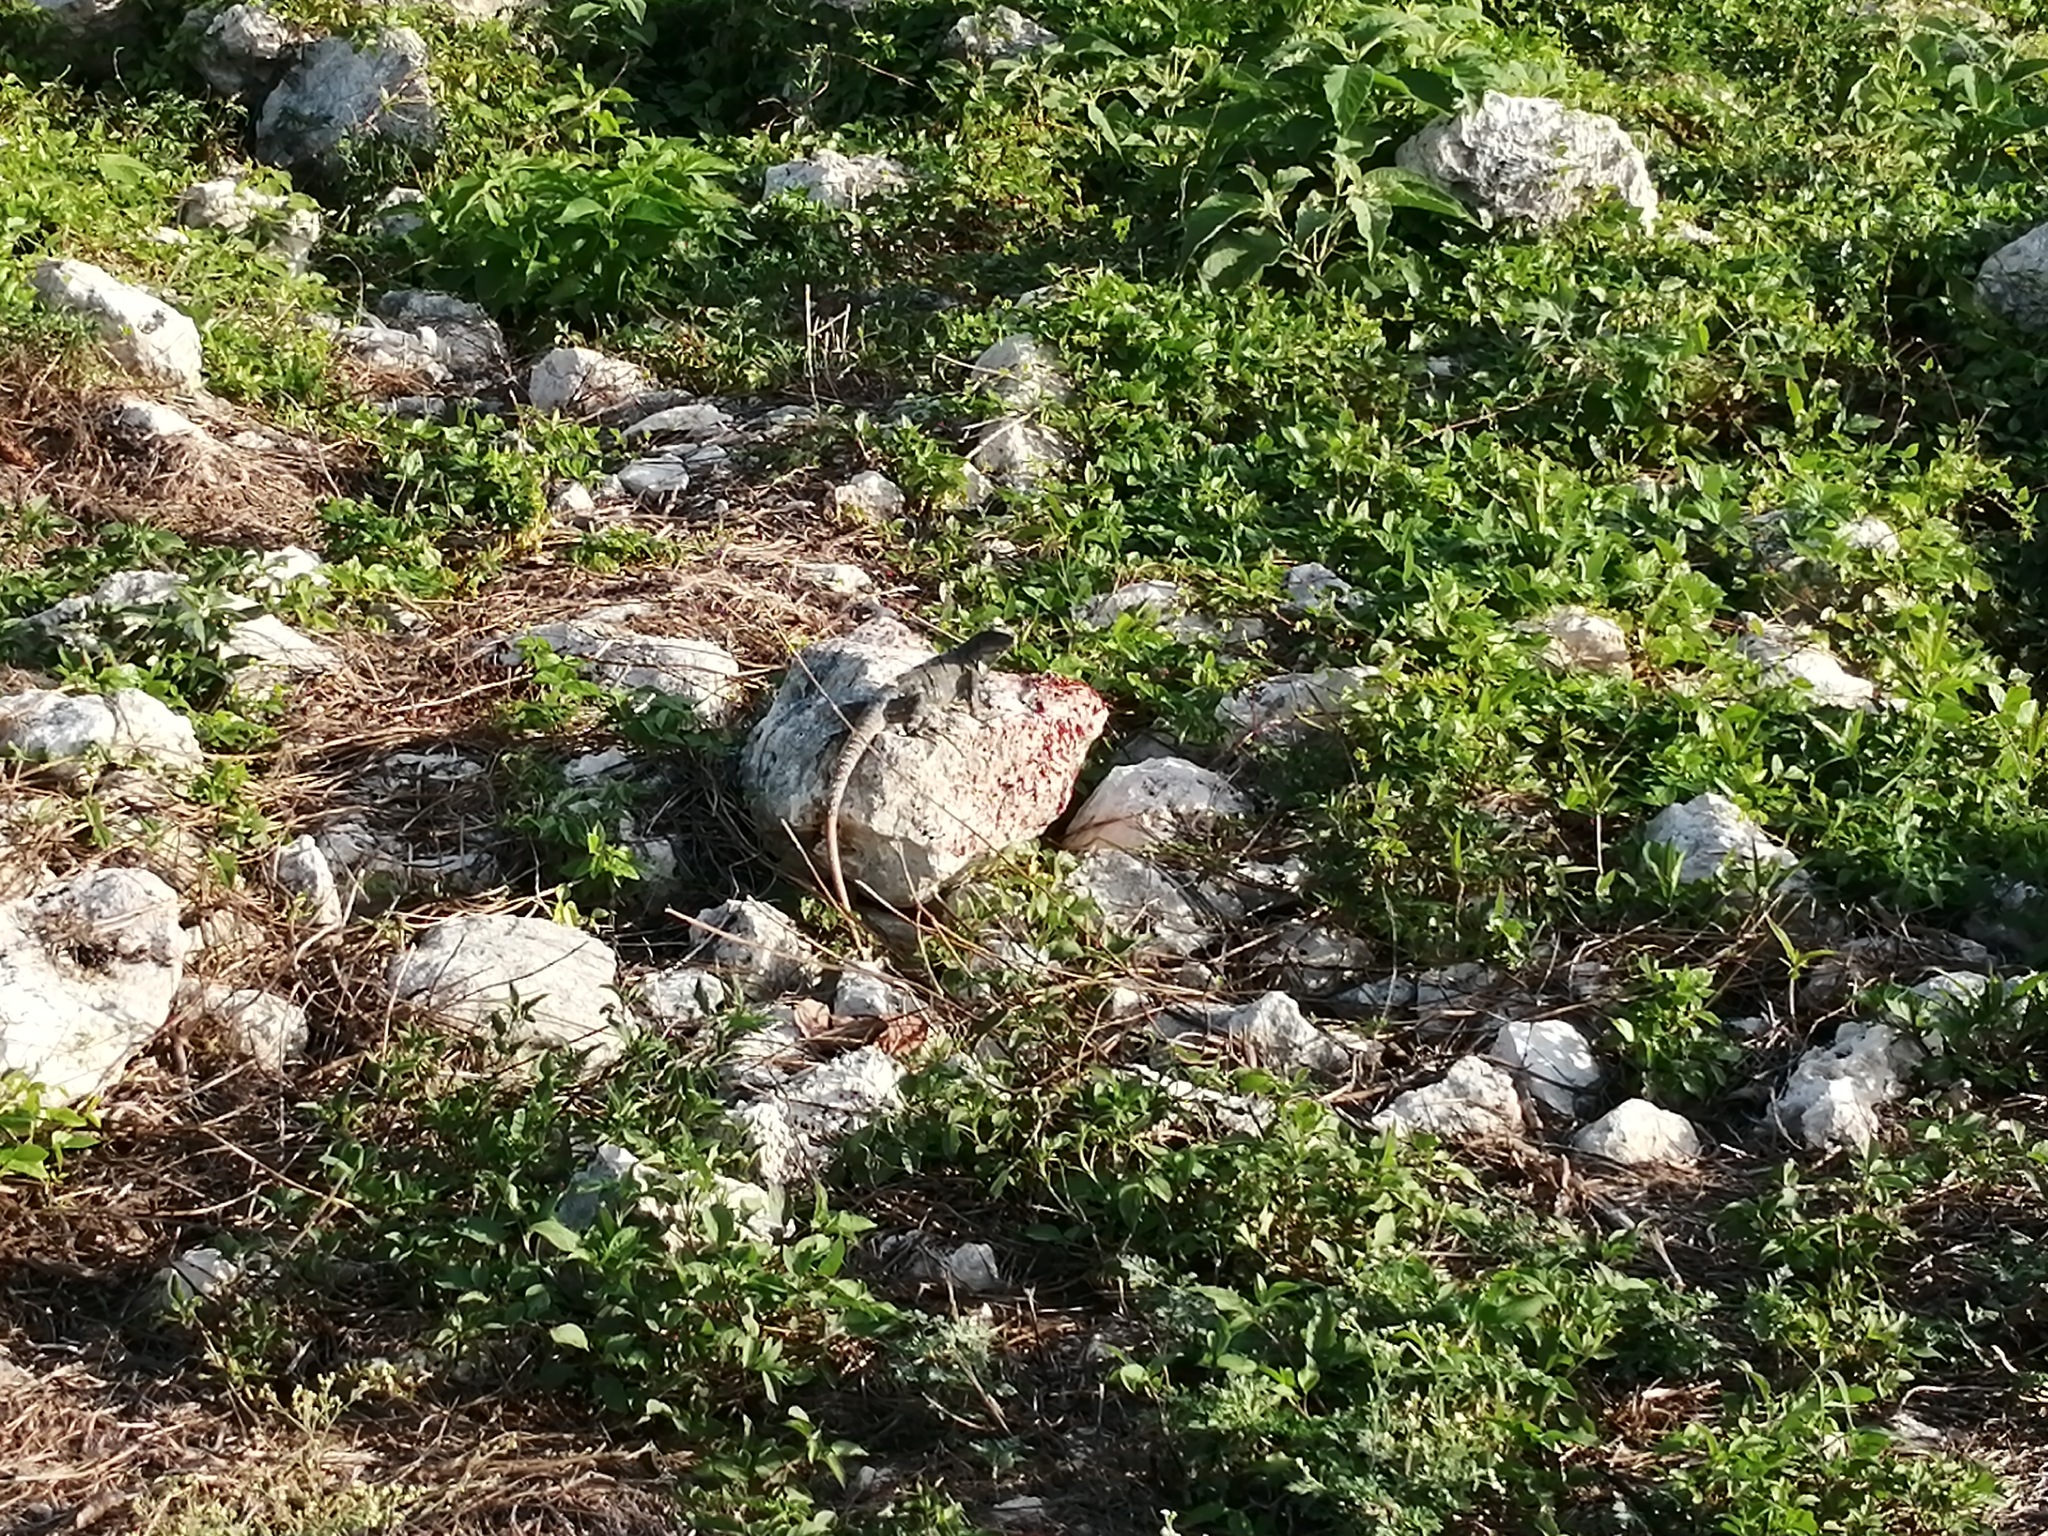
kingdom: Animalia
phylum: Chordata
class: Squamata
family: Iguanidae
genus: Ctenosaura
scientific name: Ctenosaura similis
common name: Black spiny-tailed iguana
